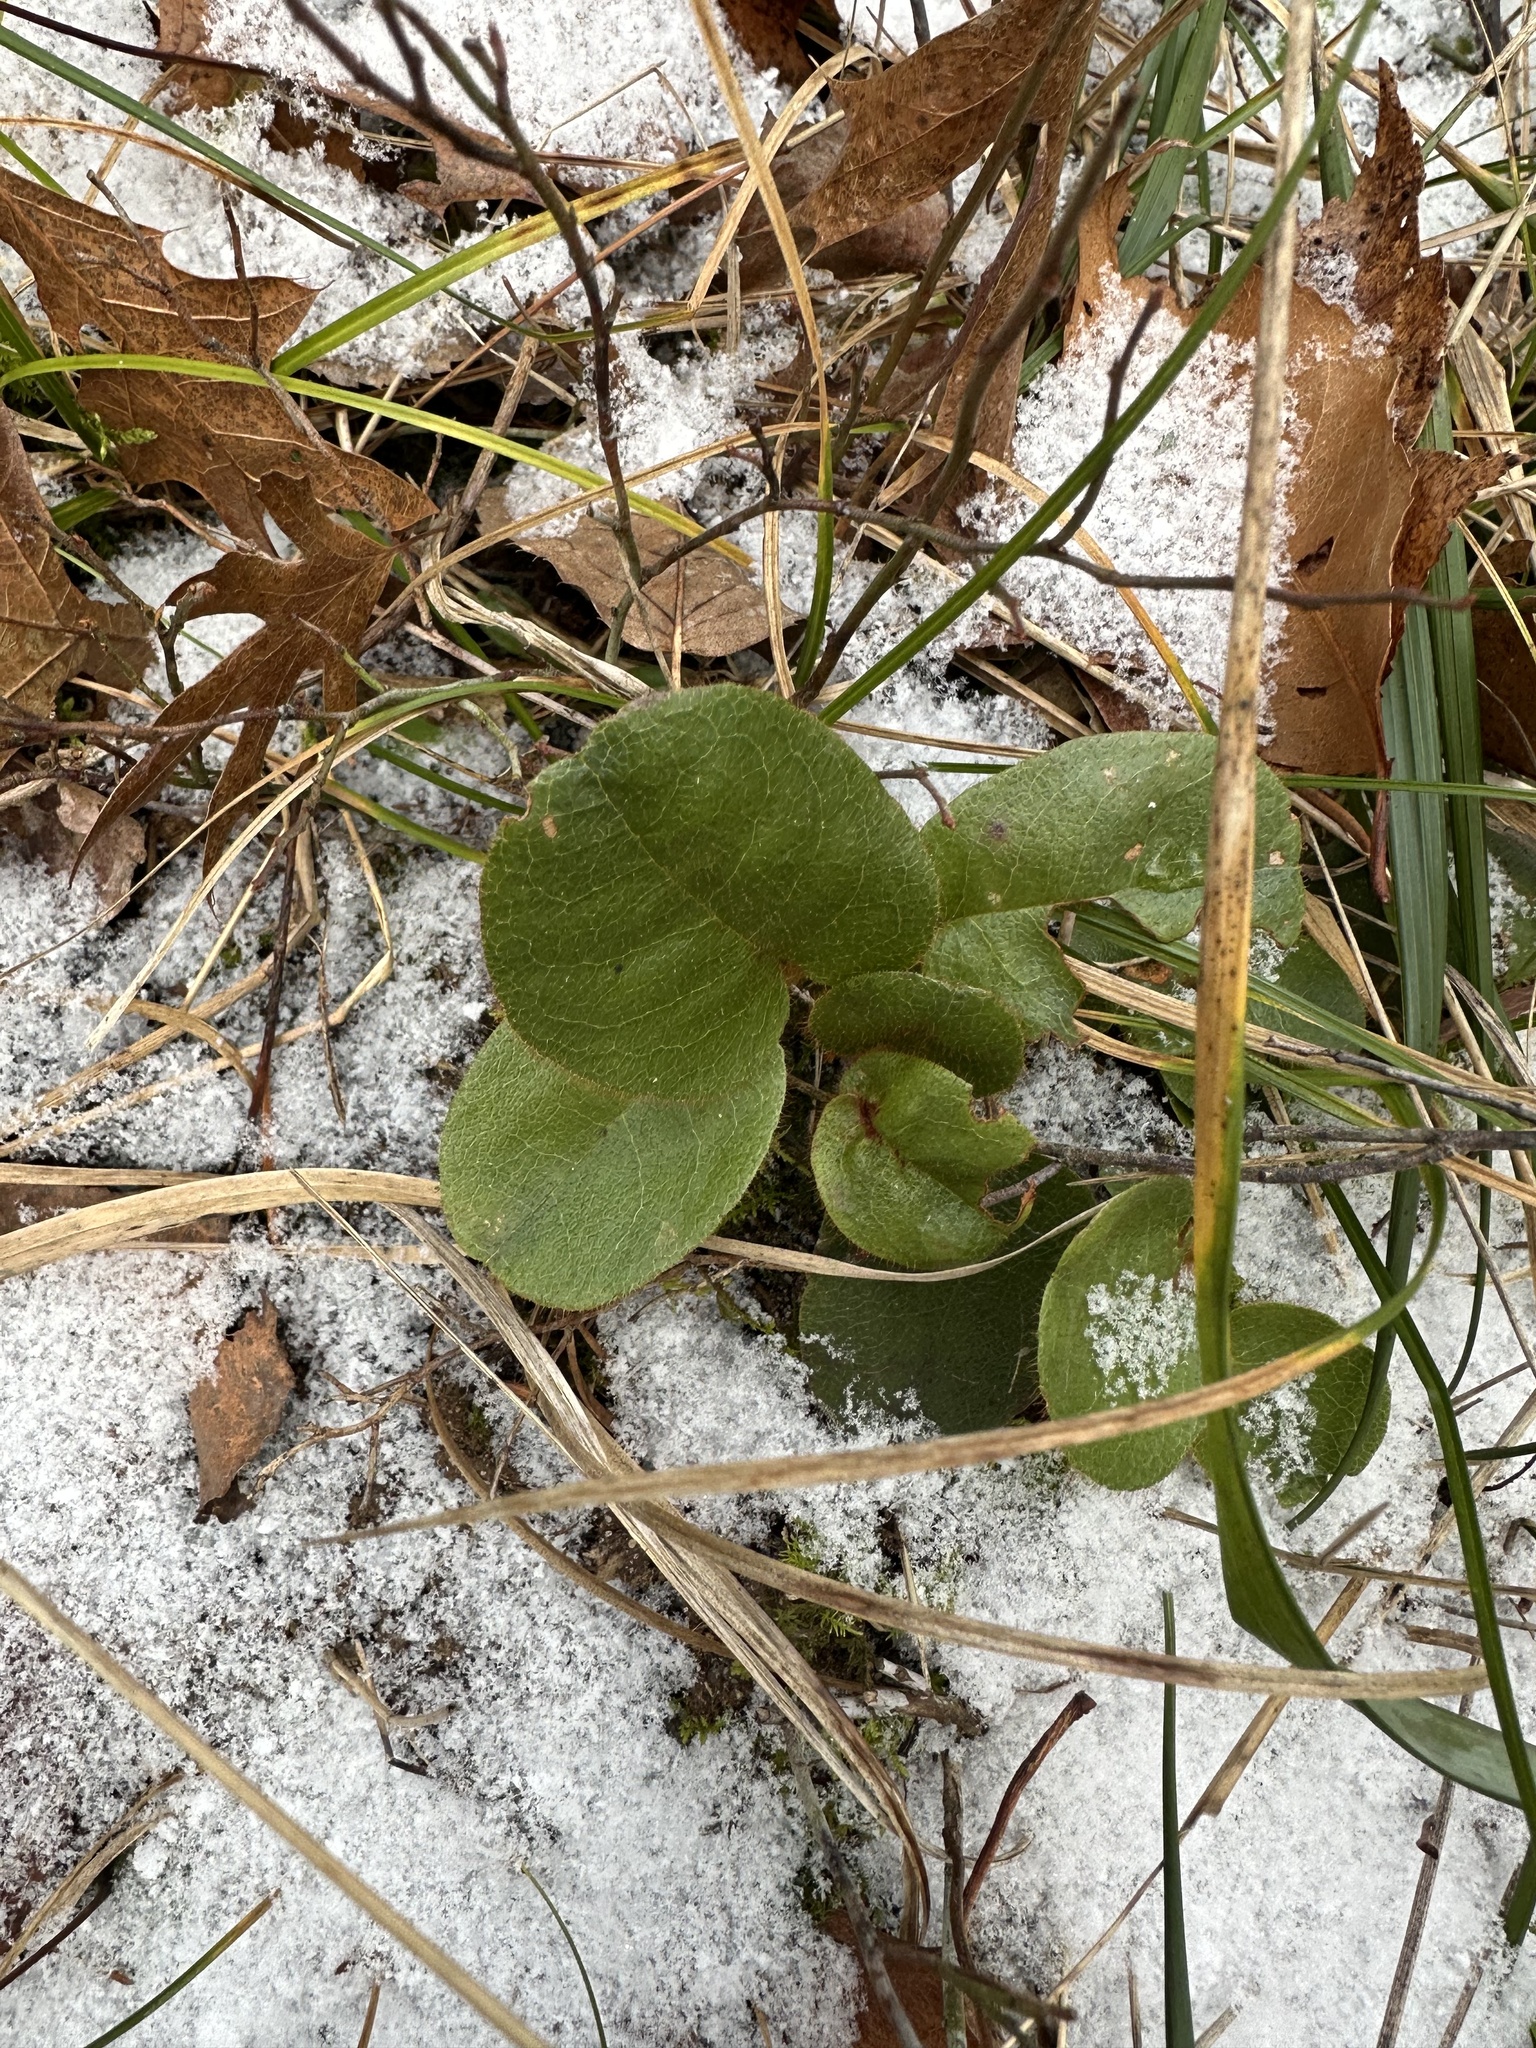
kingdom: Plantae
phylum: Tracheophyta
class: Magnoliopsida
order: Ericales
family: Ericaceae
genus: Epigaea
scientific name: Epigaea repens
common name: Gravelroot
